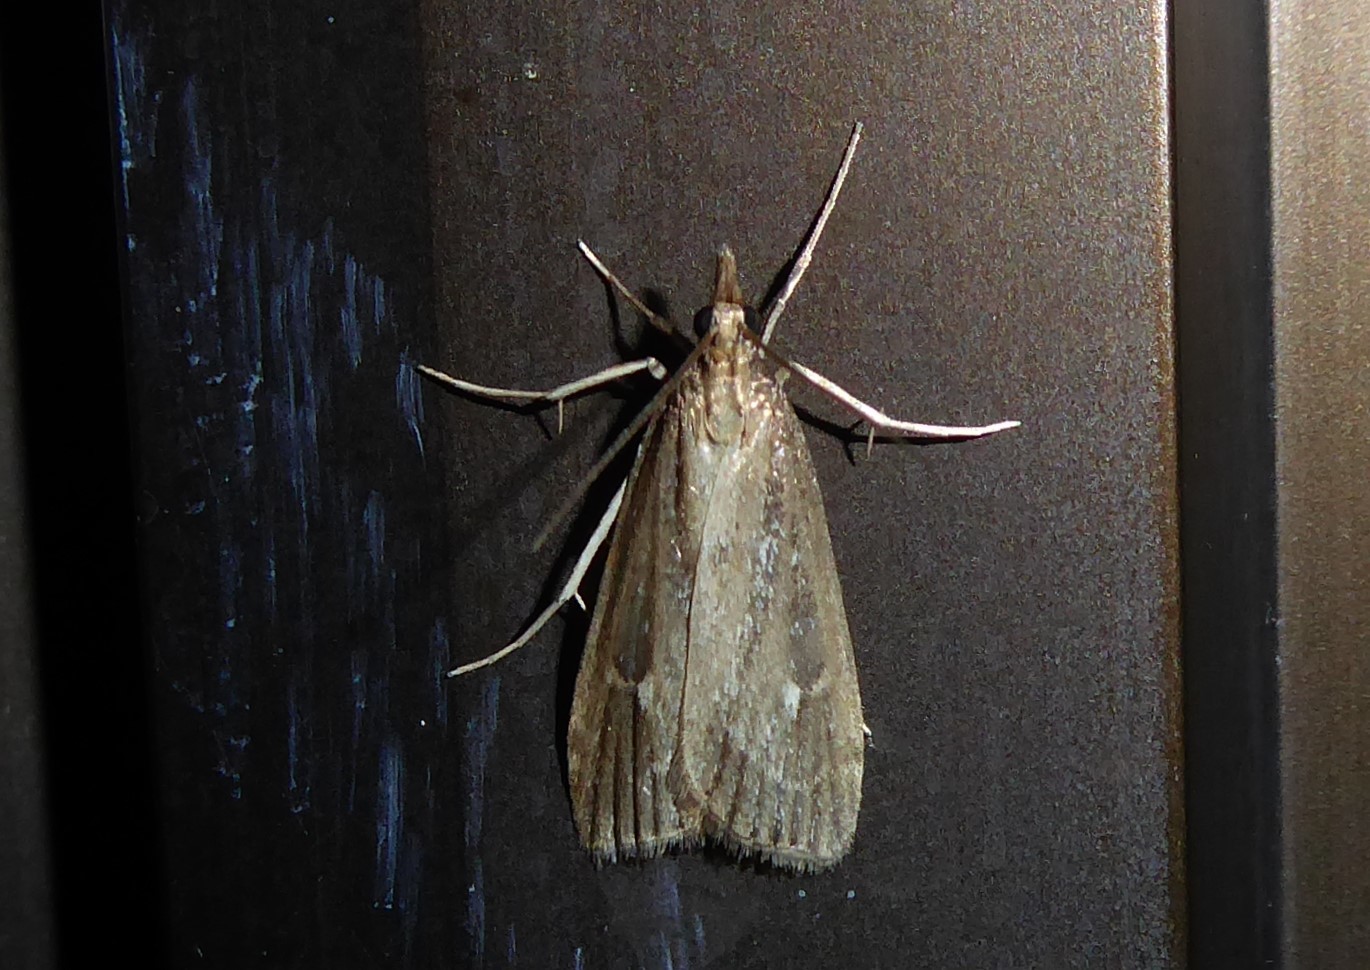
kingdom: Animalia
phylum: Arthropoda
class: Insecta
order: Lepidoptera
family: Crambidae
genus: Eudonia
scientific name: Eudonia octophora
